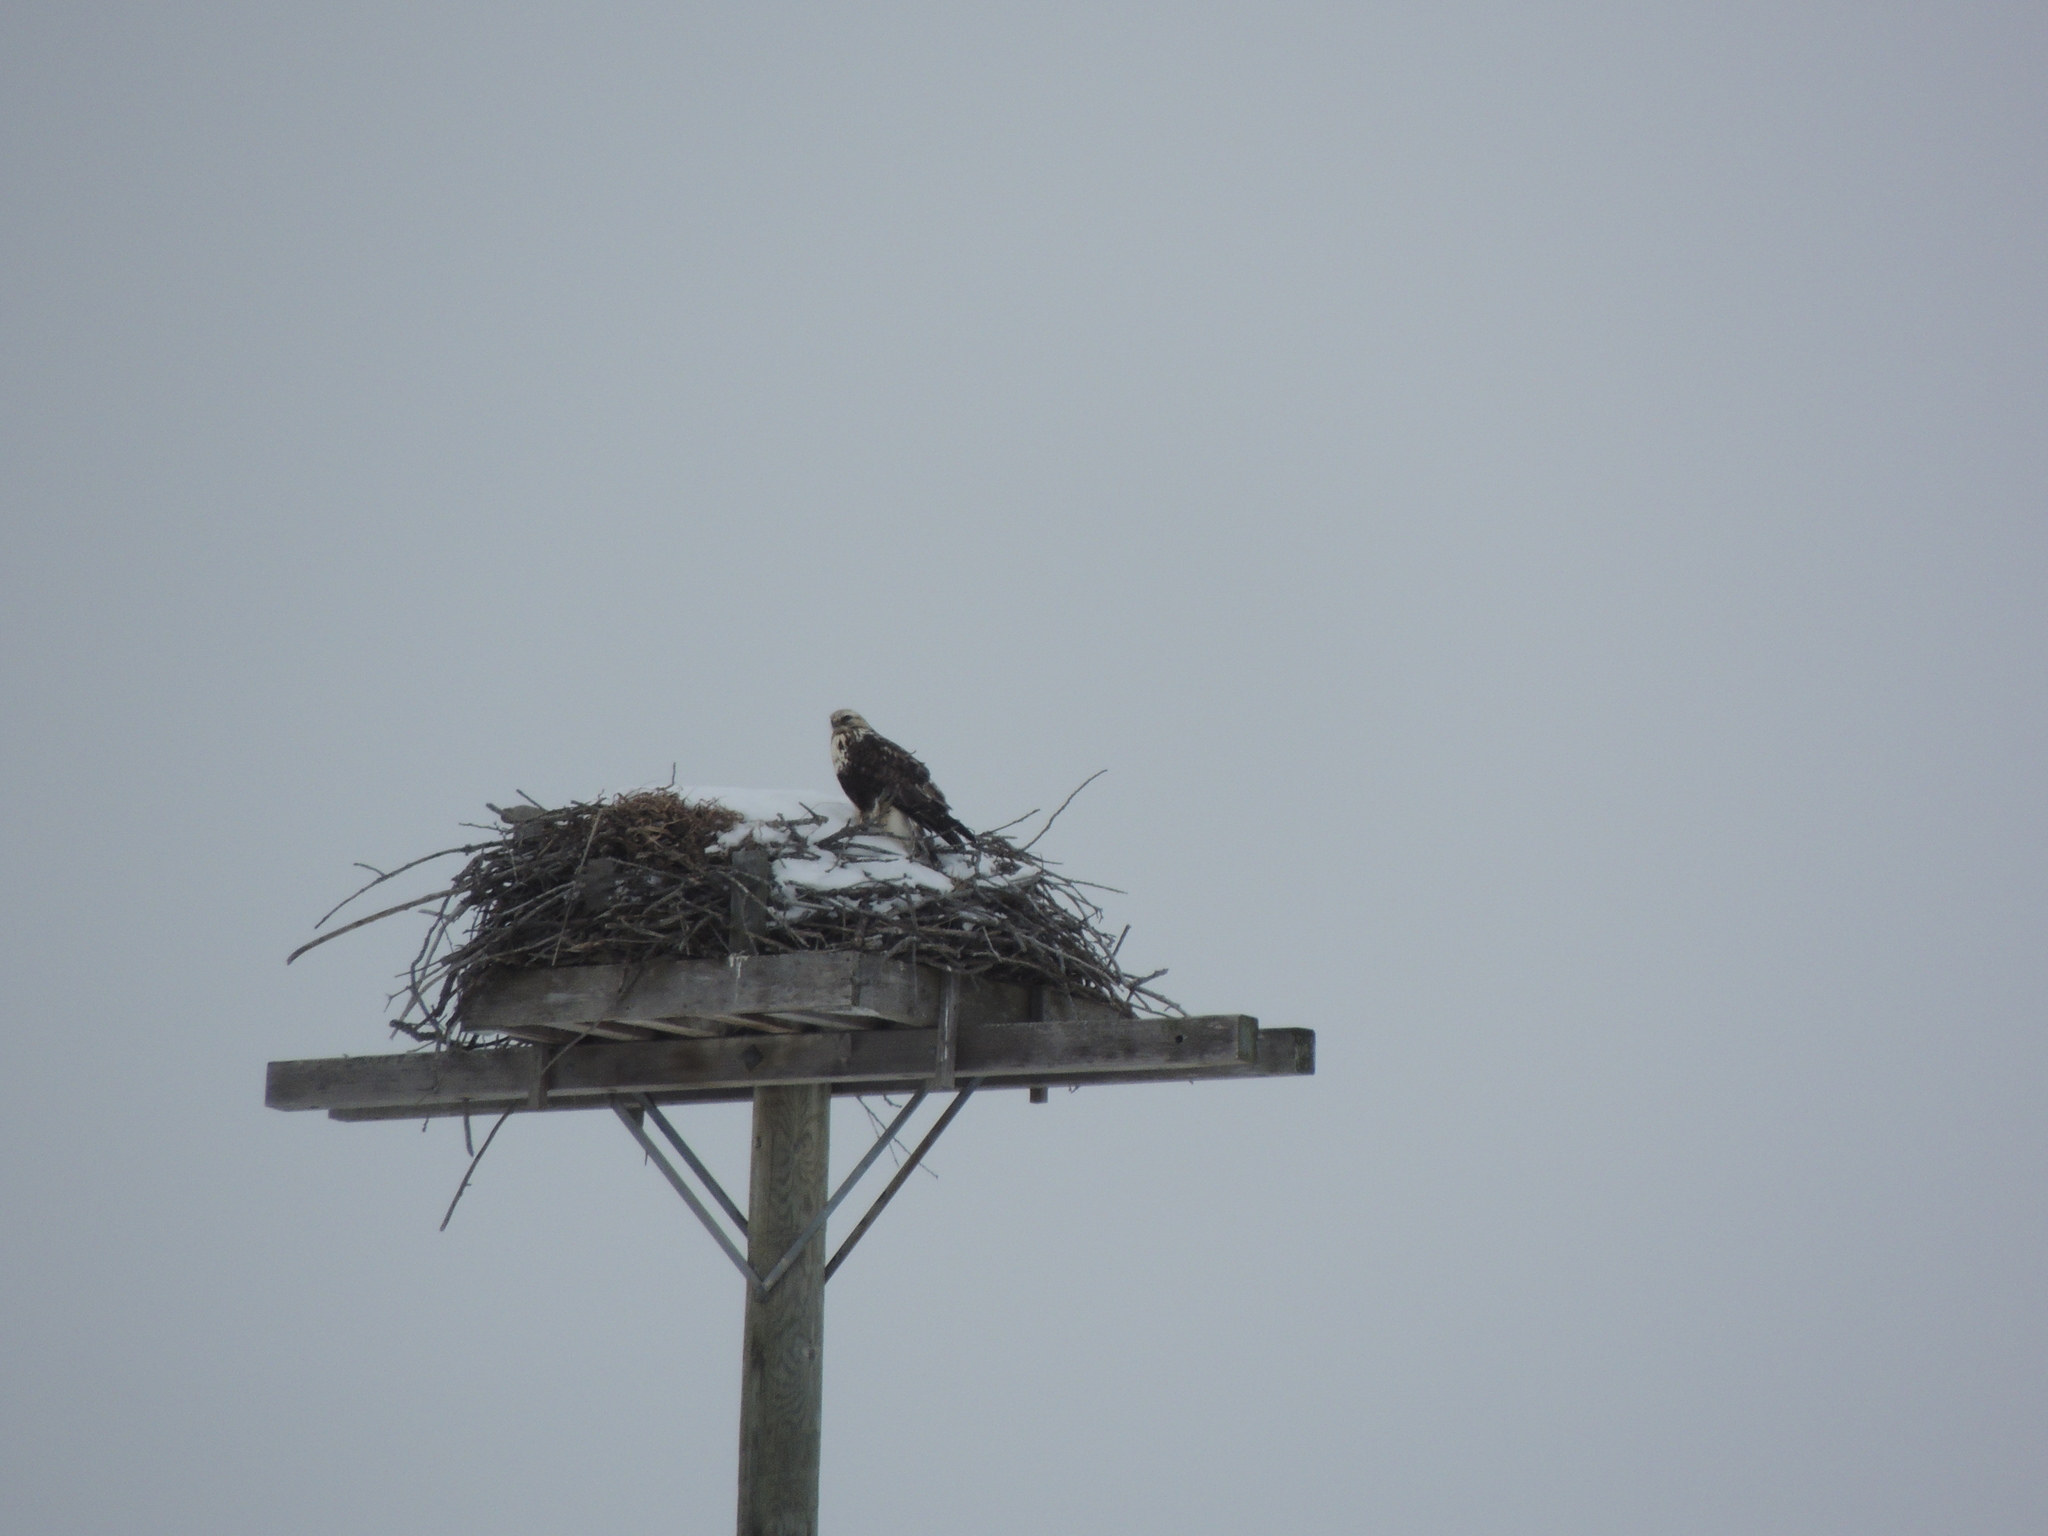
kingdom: Animalia
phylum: Chordata
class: Aves
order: Accipitriformes
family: Accipitridae
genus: Buteo
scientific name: Buteo lagopus
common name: Rough-legged buzzard
